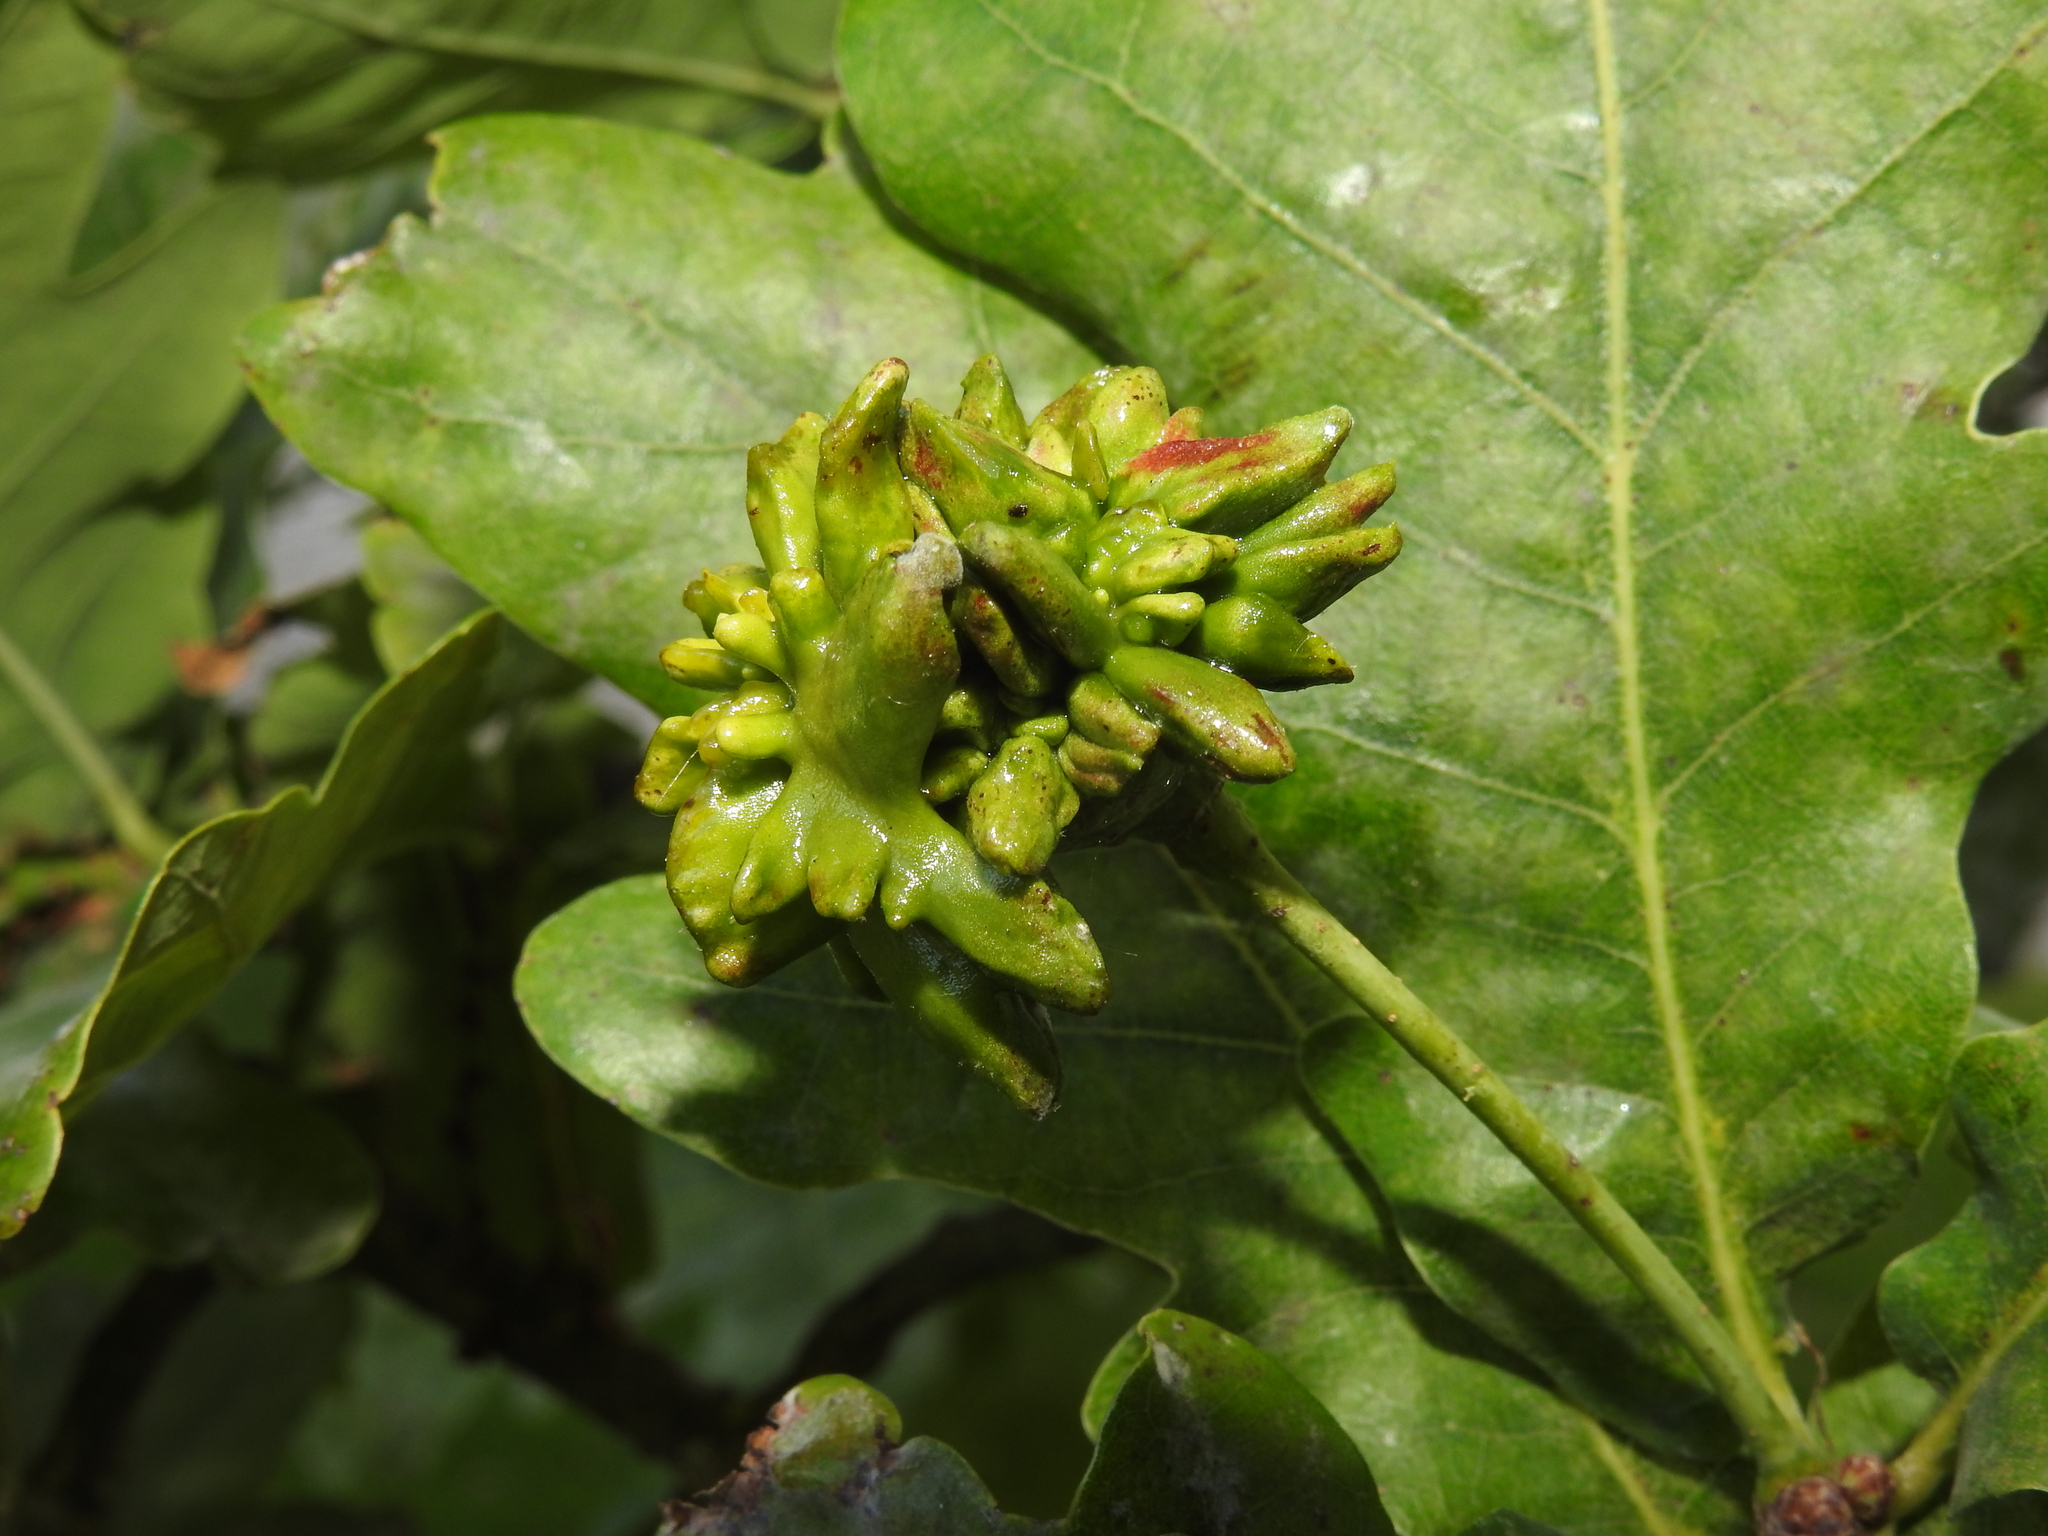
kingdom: Animalia
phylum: Arthropoda
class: Insecta
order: Hymenoptera
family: Cynipidae
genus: Andricus
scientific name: Andricus quercuscalicis
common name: Knopper gall
